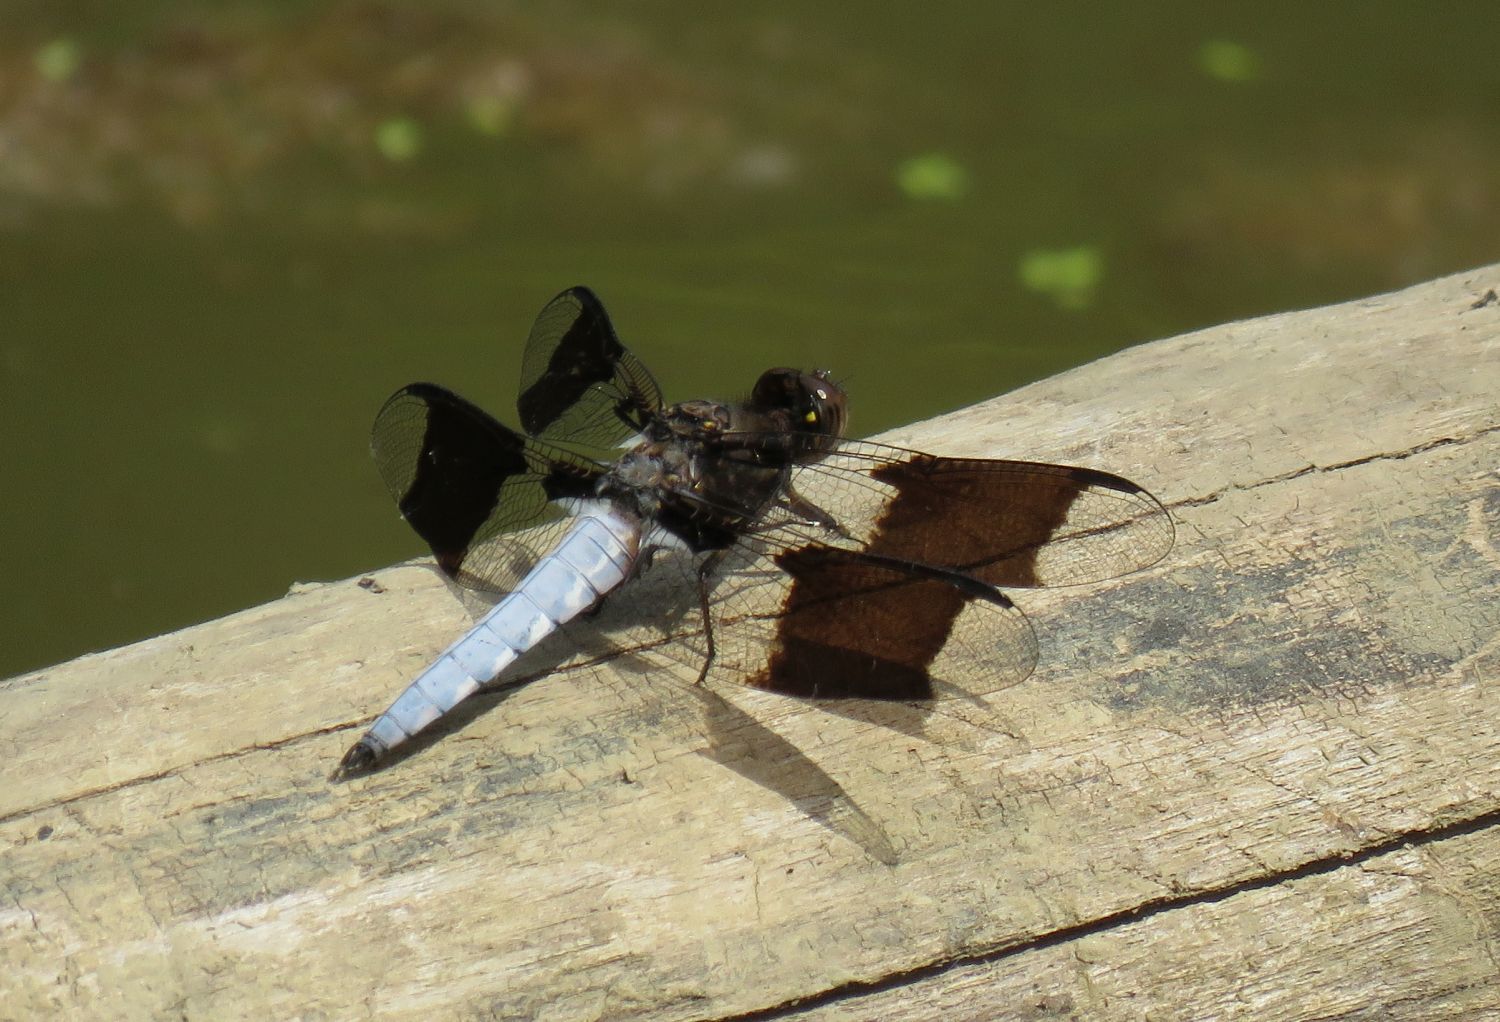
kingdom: Animalia
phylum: Arthropoda
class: Insecta
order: Odonata
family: Libellulidae
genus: Plathemis
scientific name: Plathemis lydia
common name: Common whitetail
